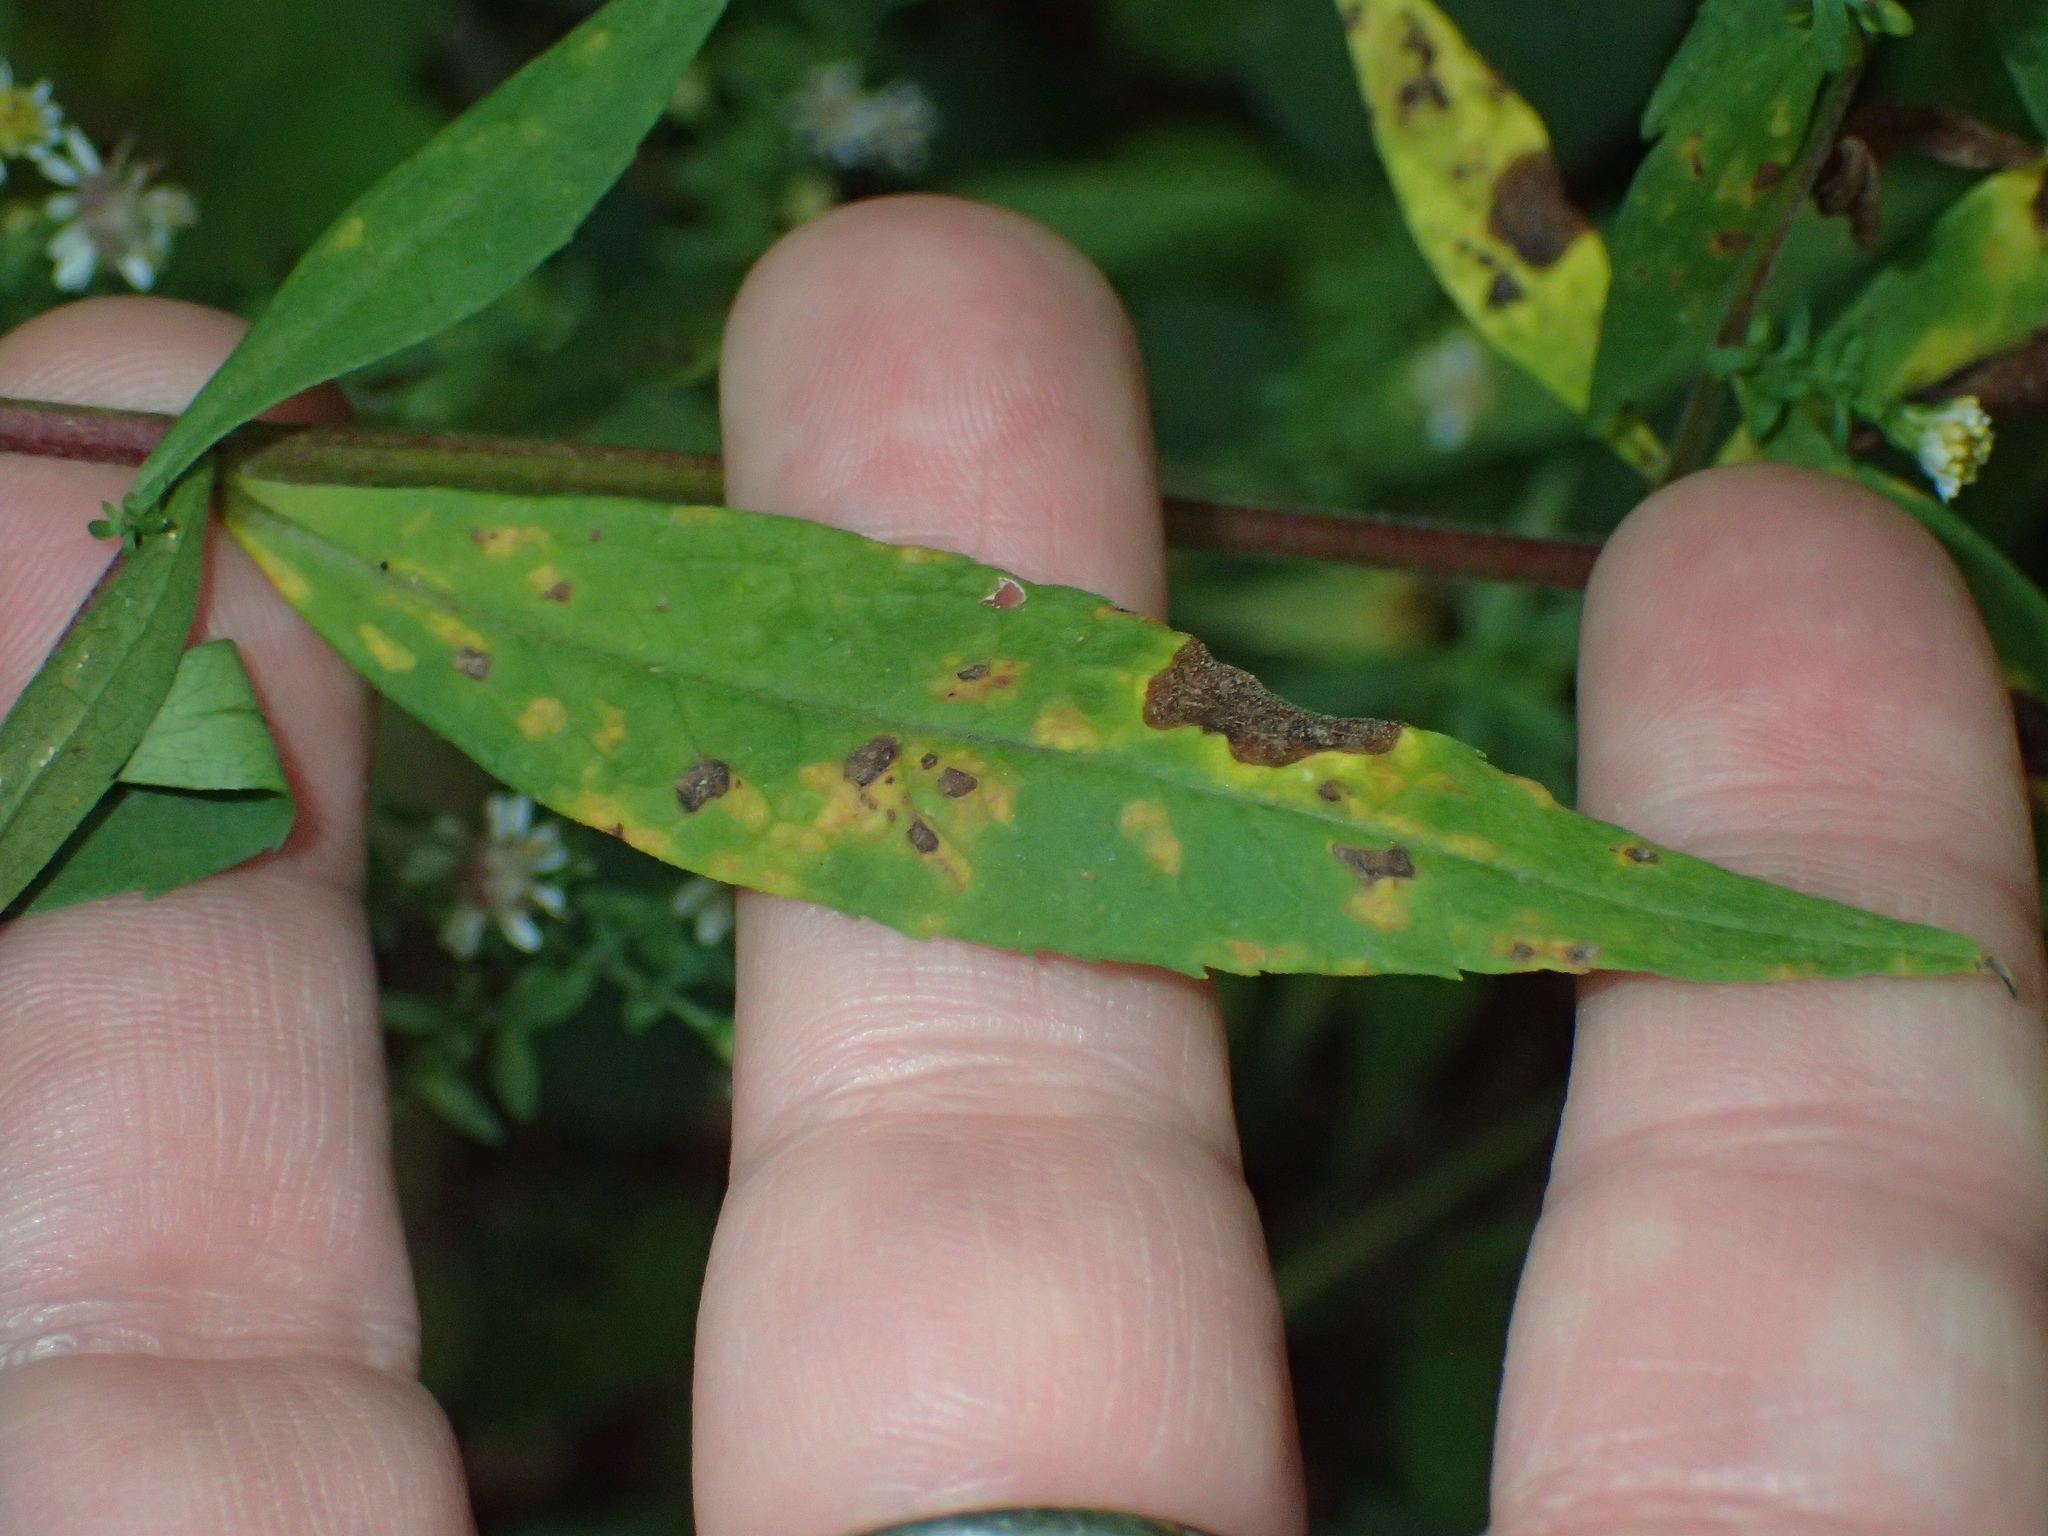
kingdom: Plantae
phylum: Tracheophyta
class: Magnoliopsida
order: Asterales
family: Asteraceae
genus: Symphyotrichum
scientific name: Symphyotrichum lateriflorum
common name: Calico aster
